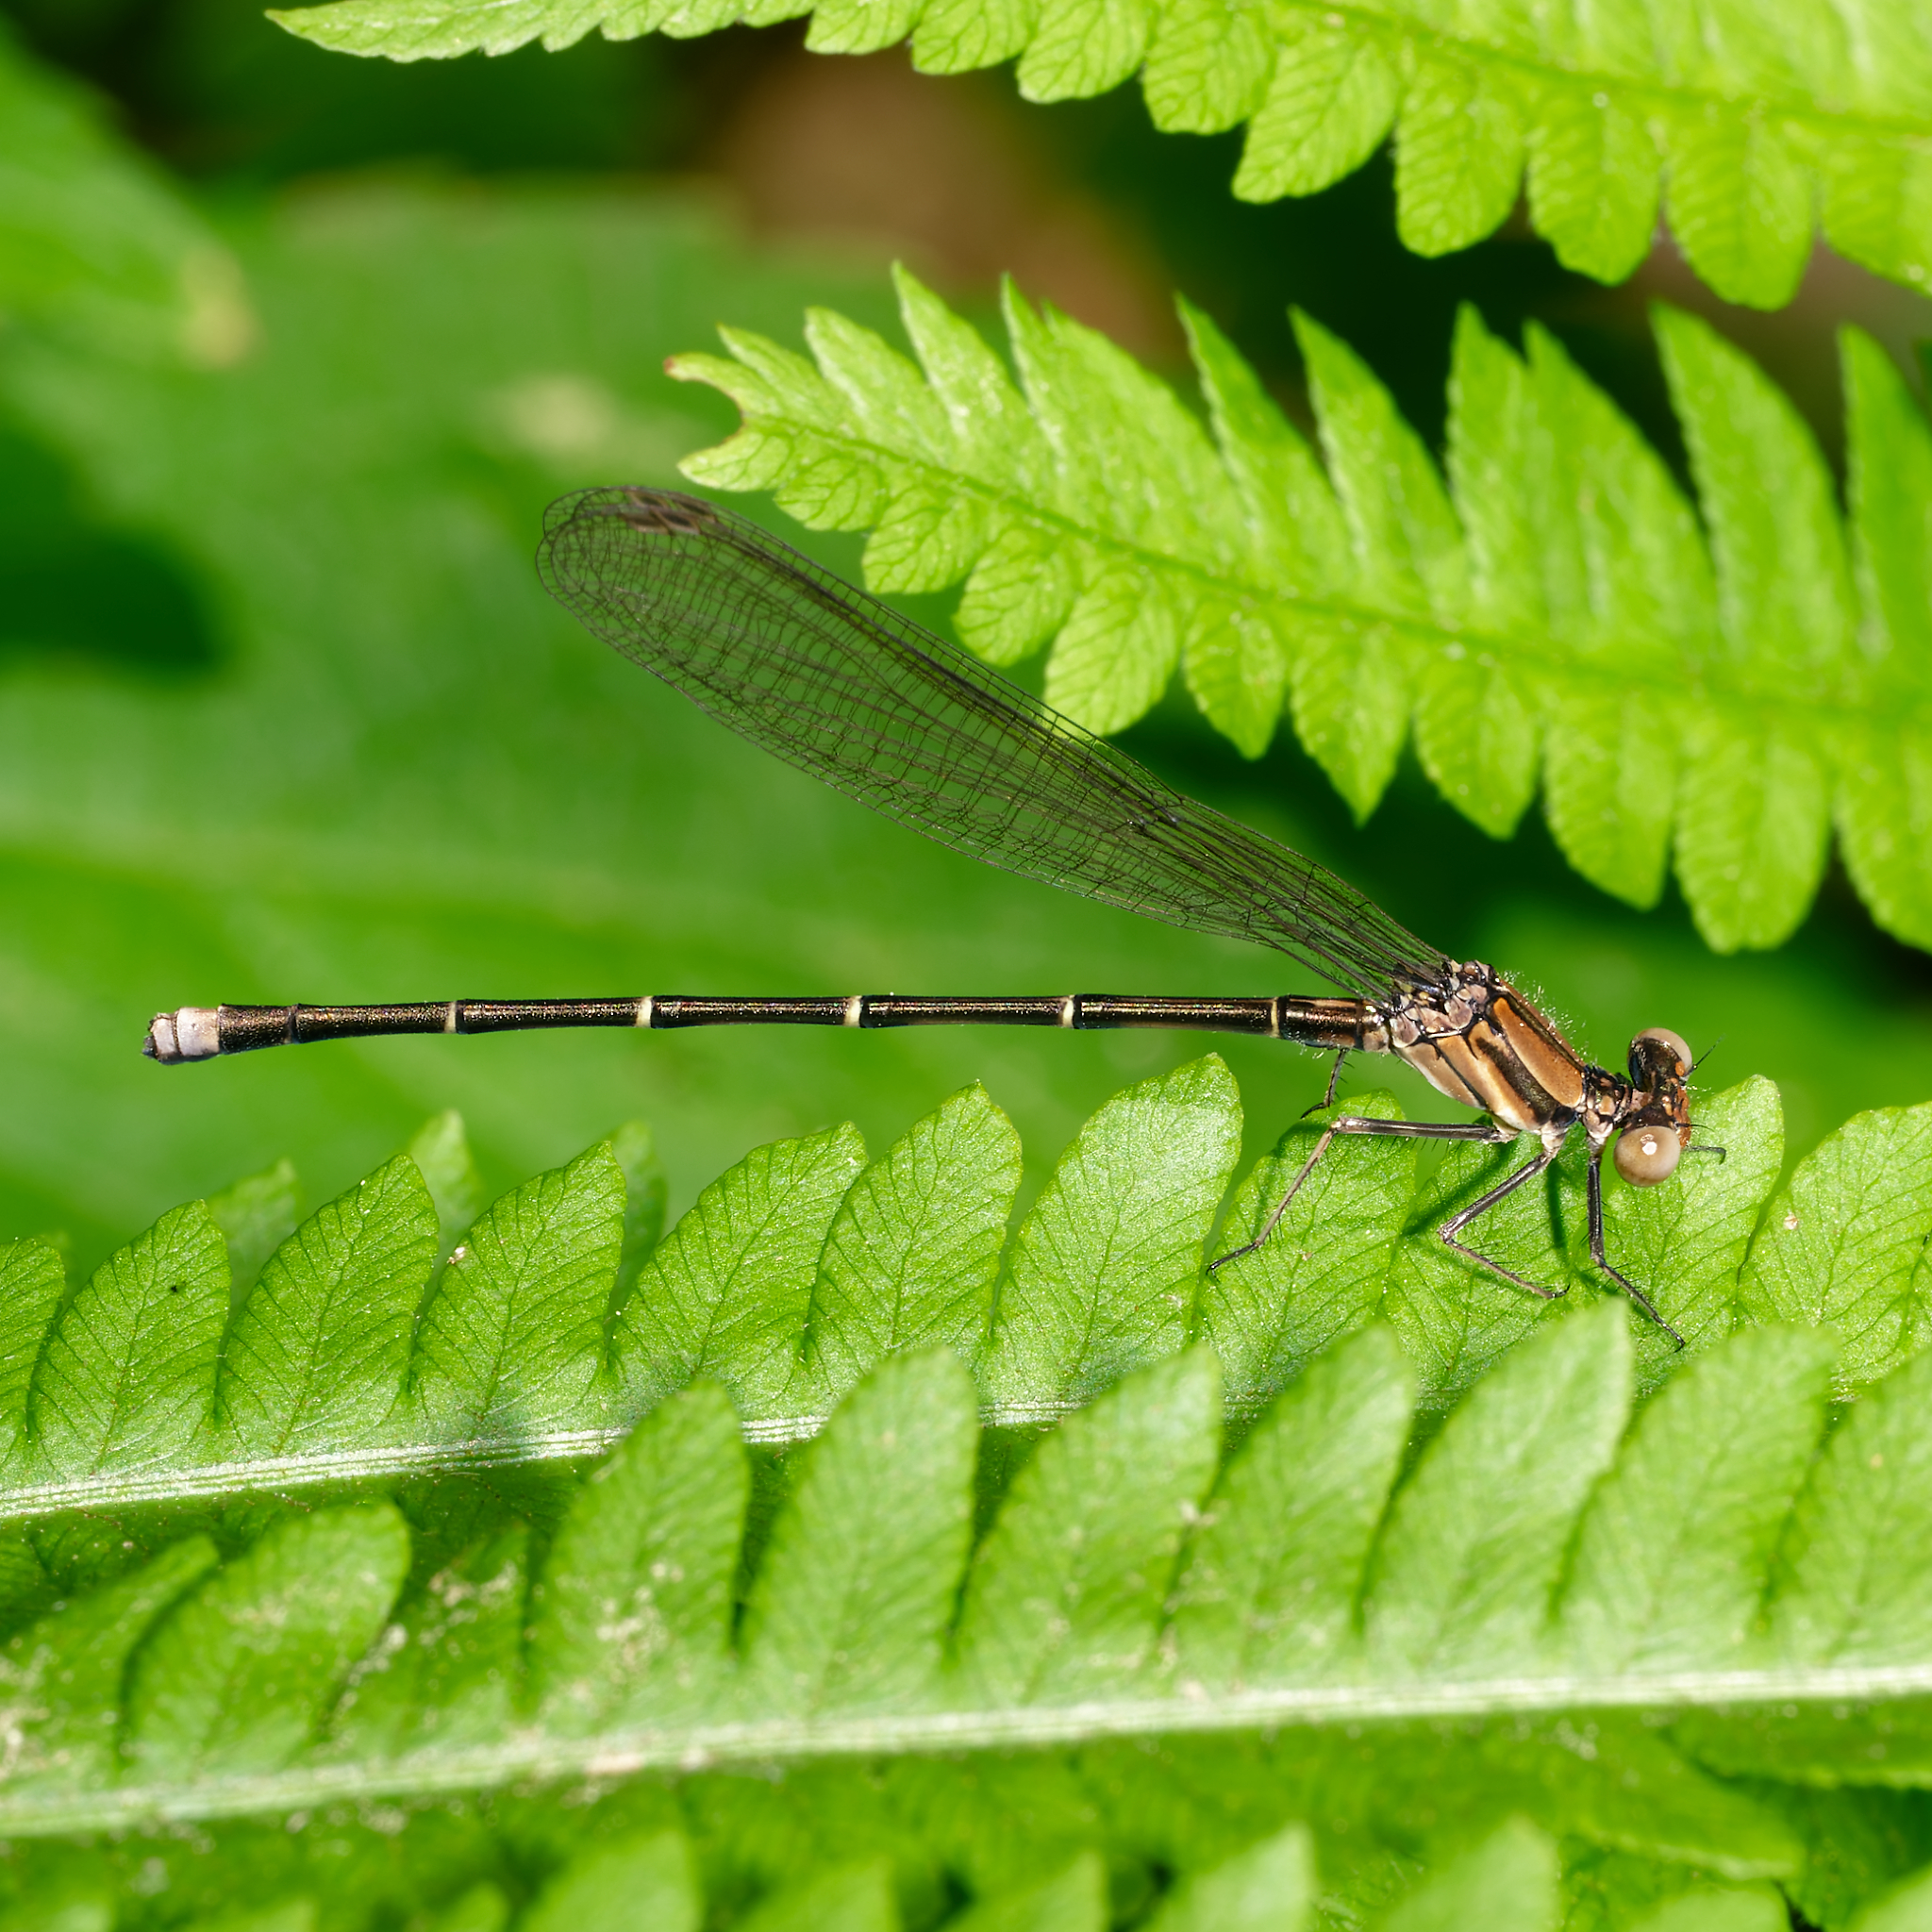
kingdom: Animalia
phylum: Arthropoda
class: Insecta
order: Odonata
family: Coenagrionidae
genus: Argia
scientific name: Argia tibialis
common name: Blue-tipped dancer
